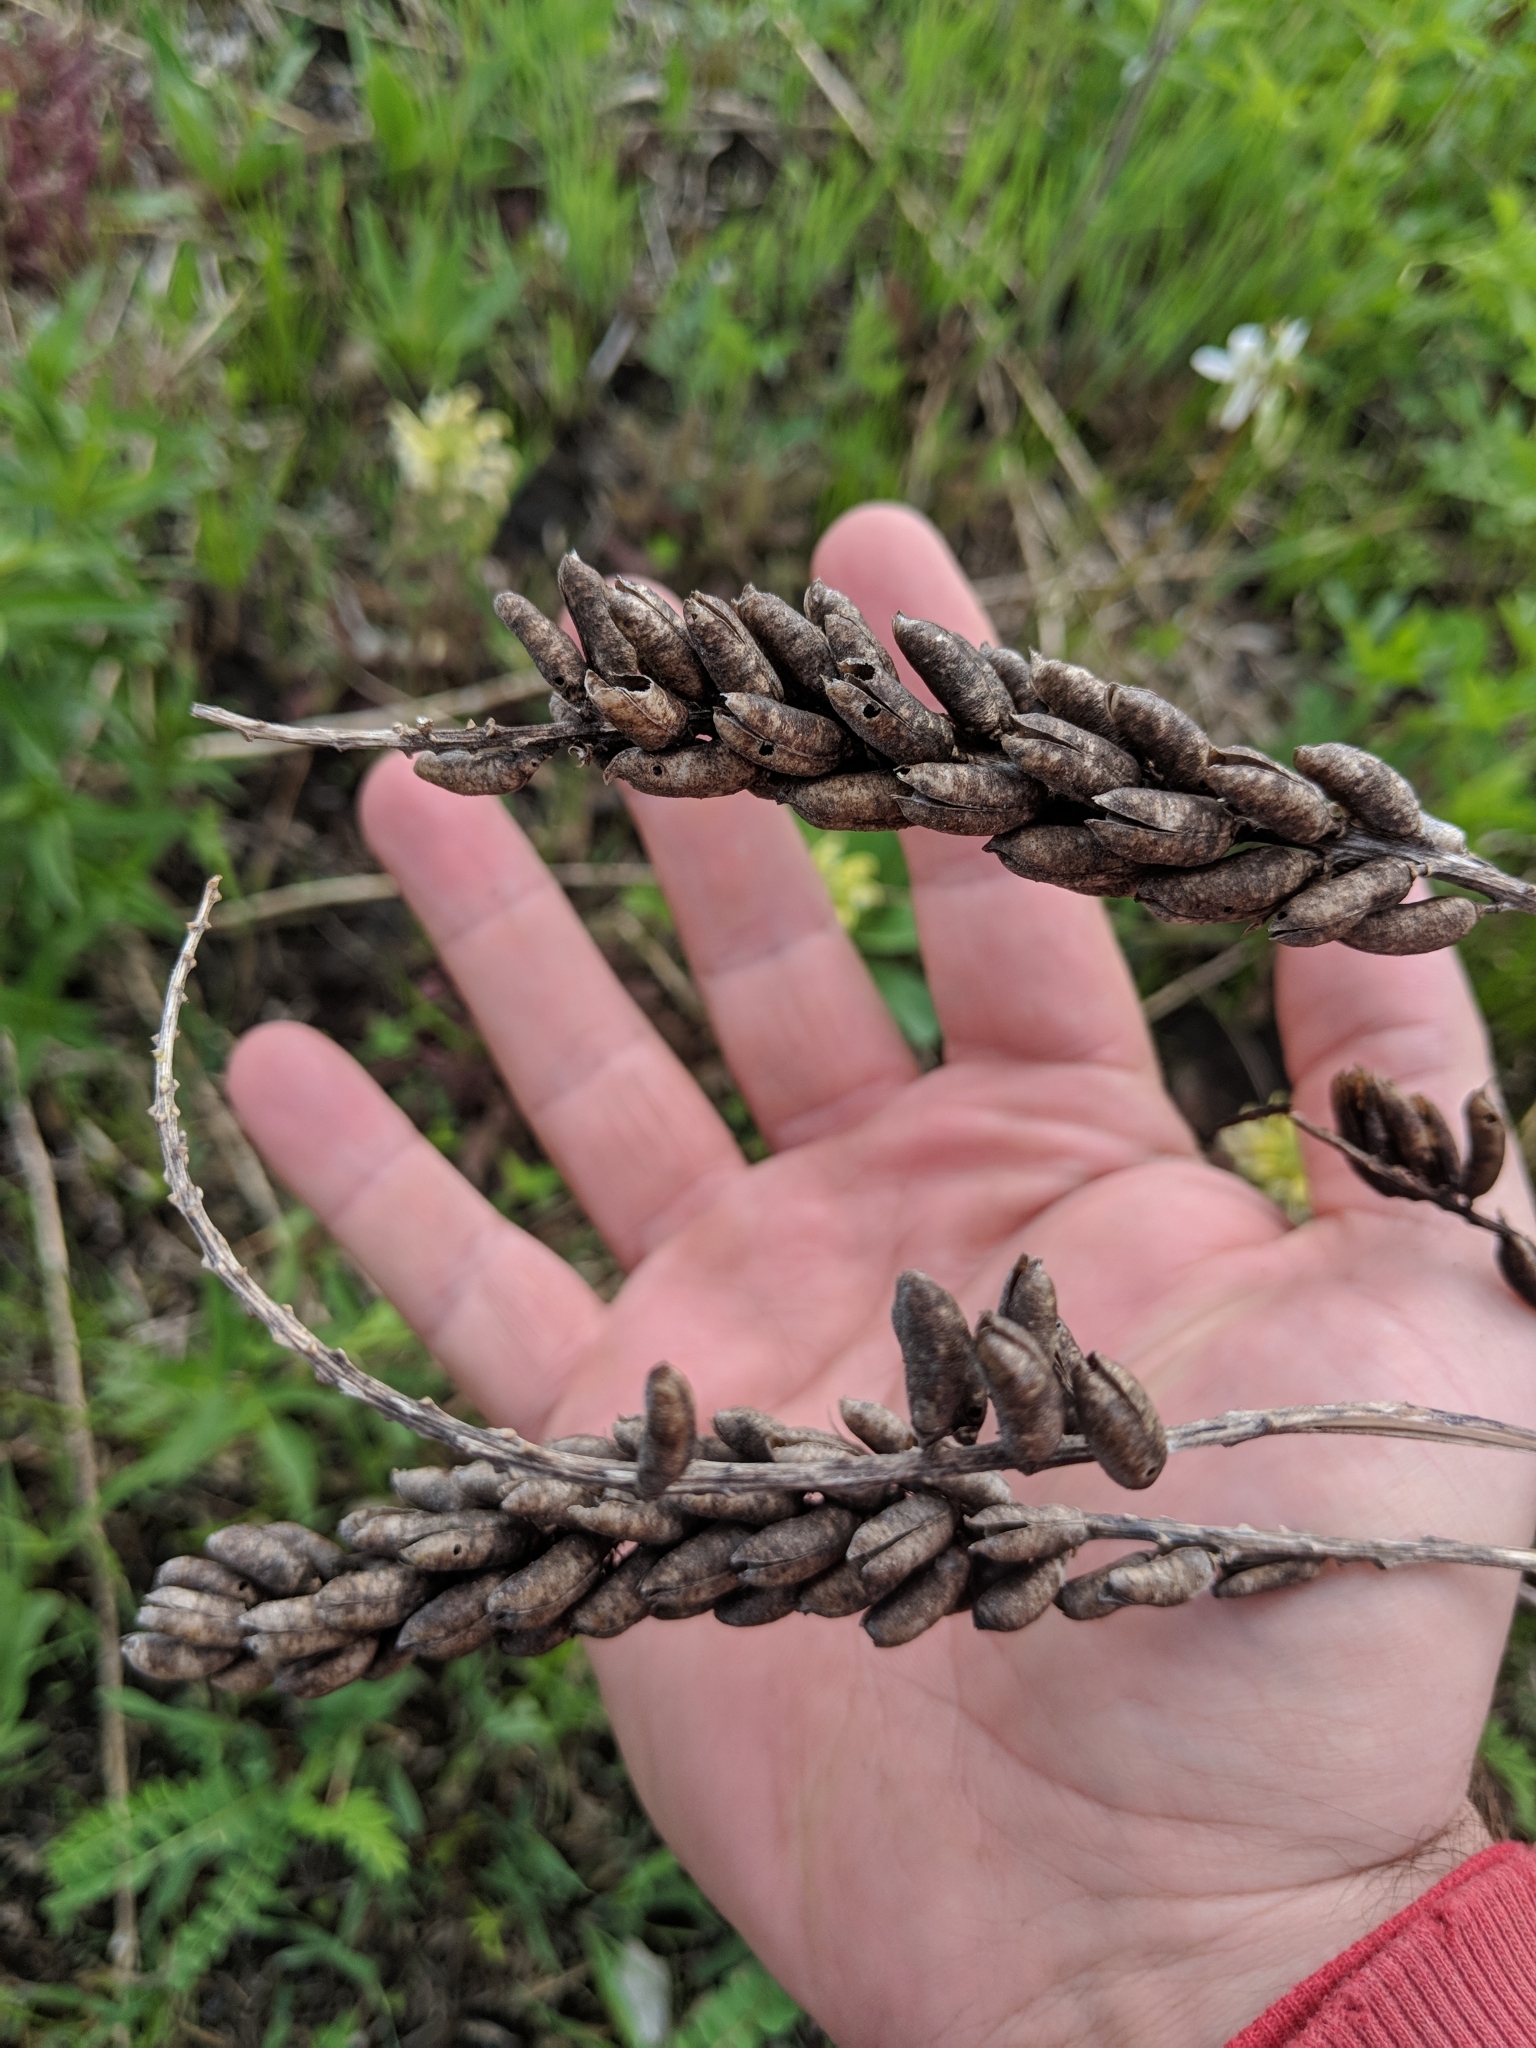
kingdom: Plantae
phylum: Tracheophyta
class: Magnoliopsida
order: Fabales
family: Fabaceae
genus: Astragalus
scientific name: Astragalus canadensis
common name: Canada milk-vetch
